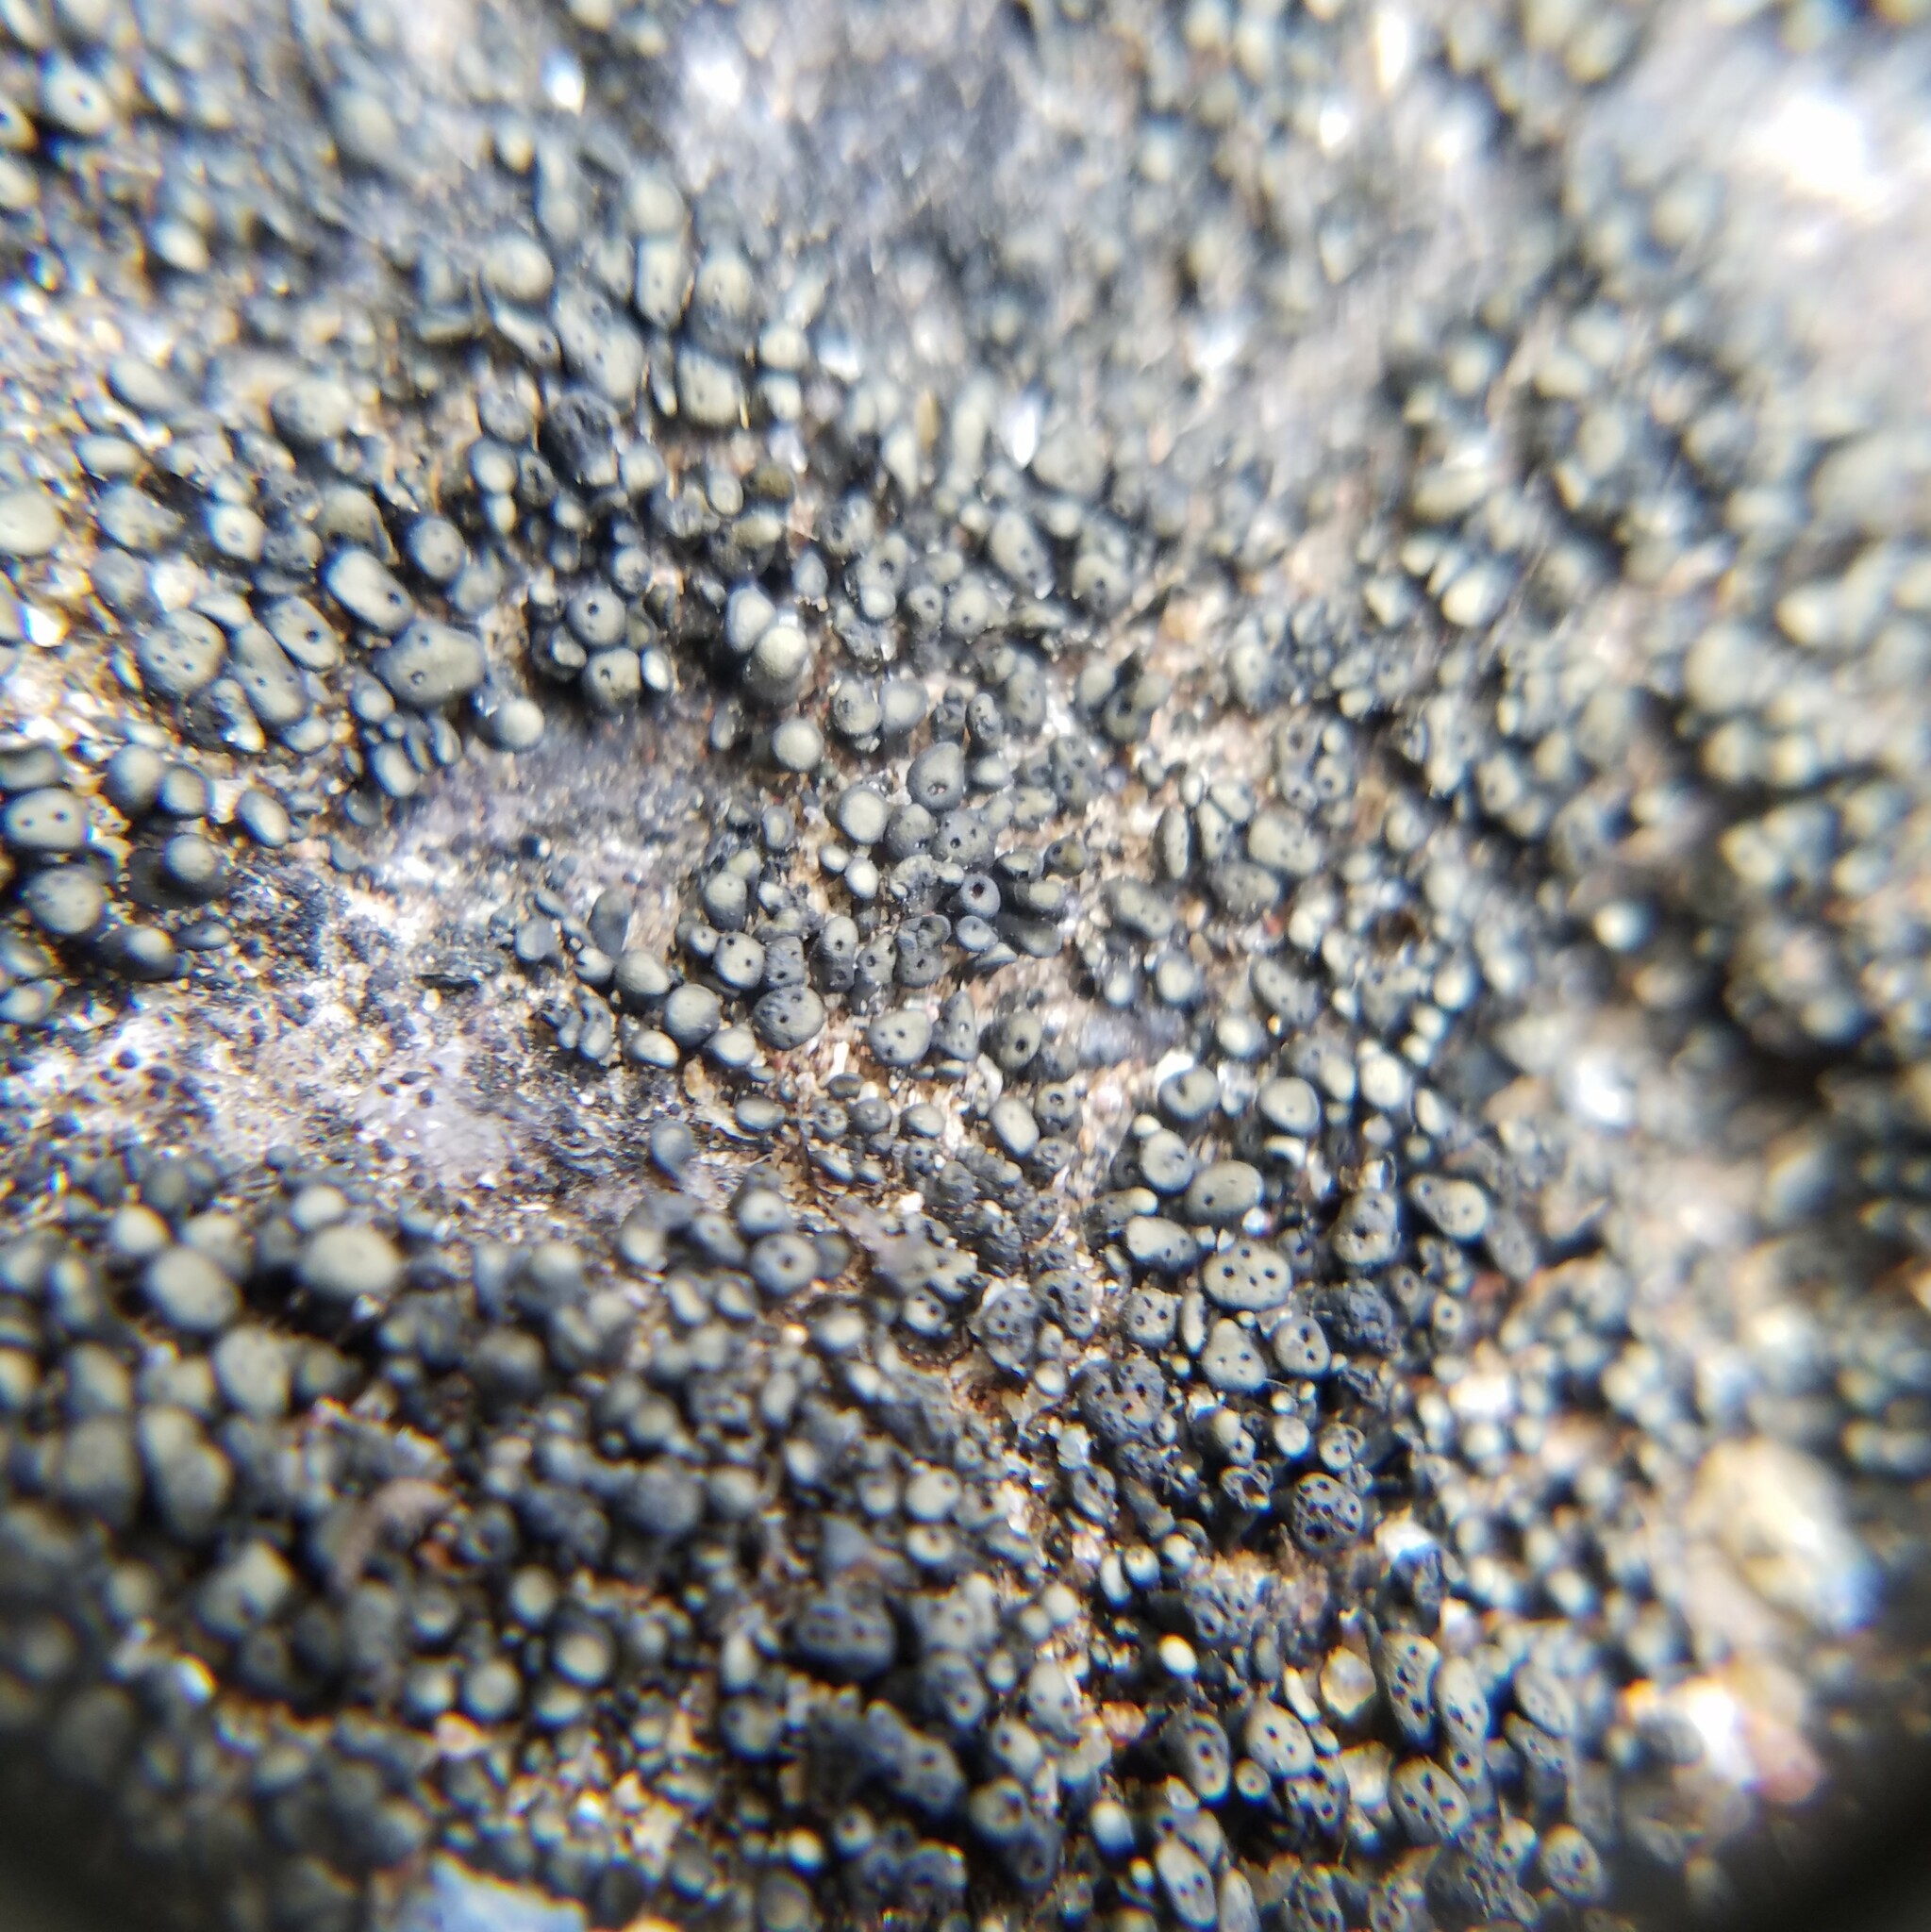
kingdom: Fungi
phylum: Ascomycota
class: Lichinomycetes
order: Lichinales
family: Peltulaceae
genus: Peltula
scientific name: Peltula cylindrica
